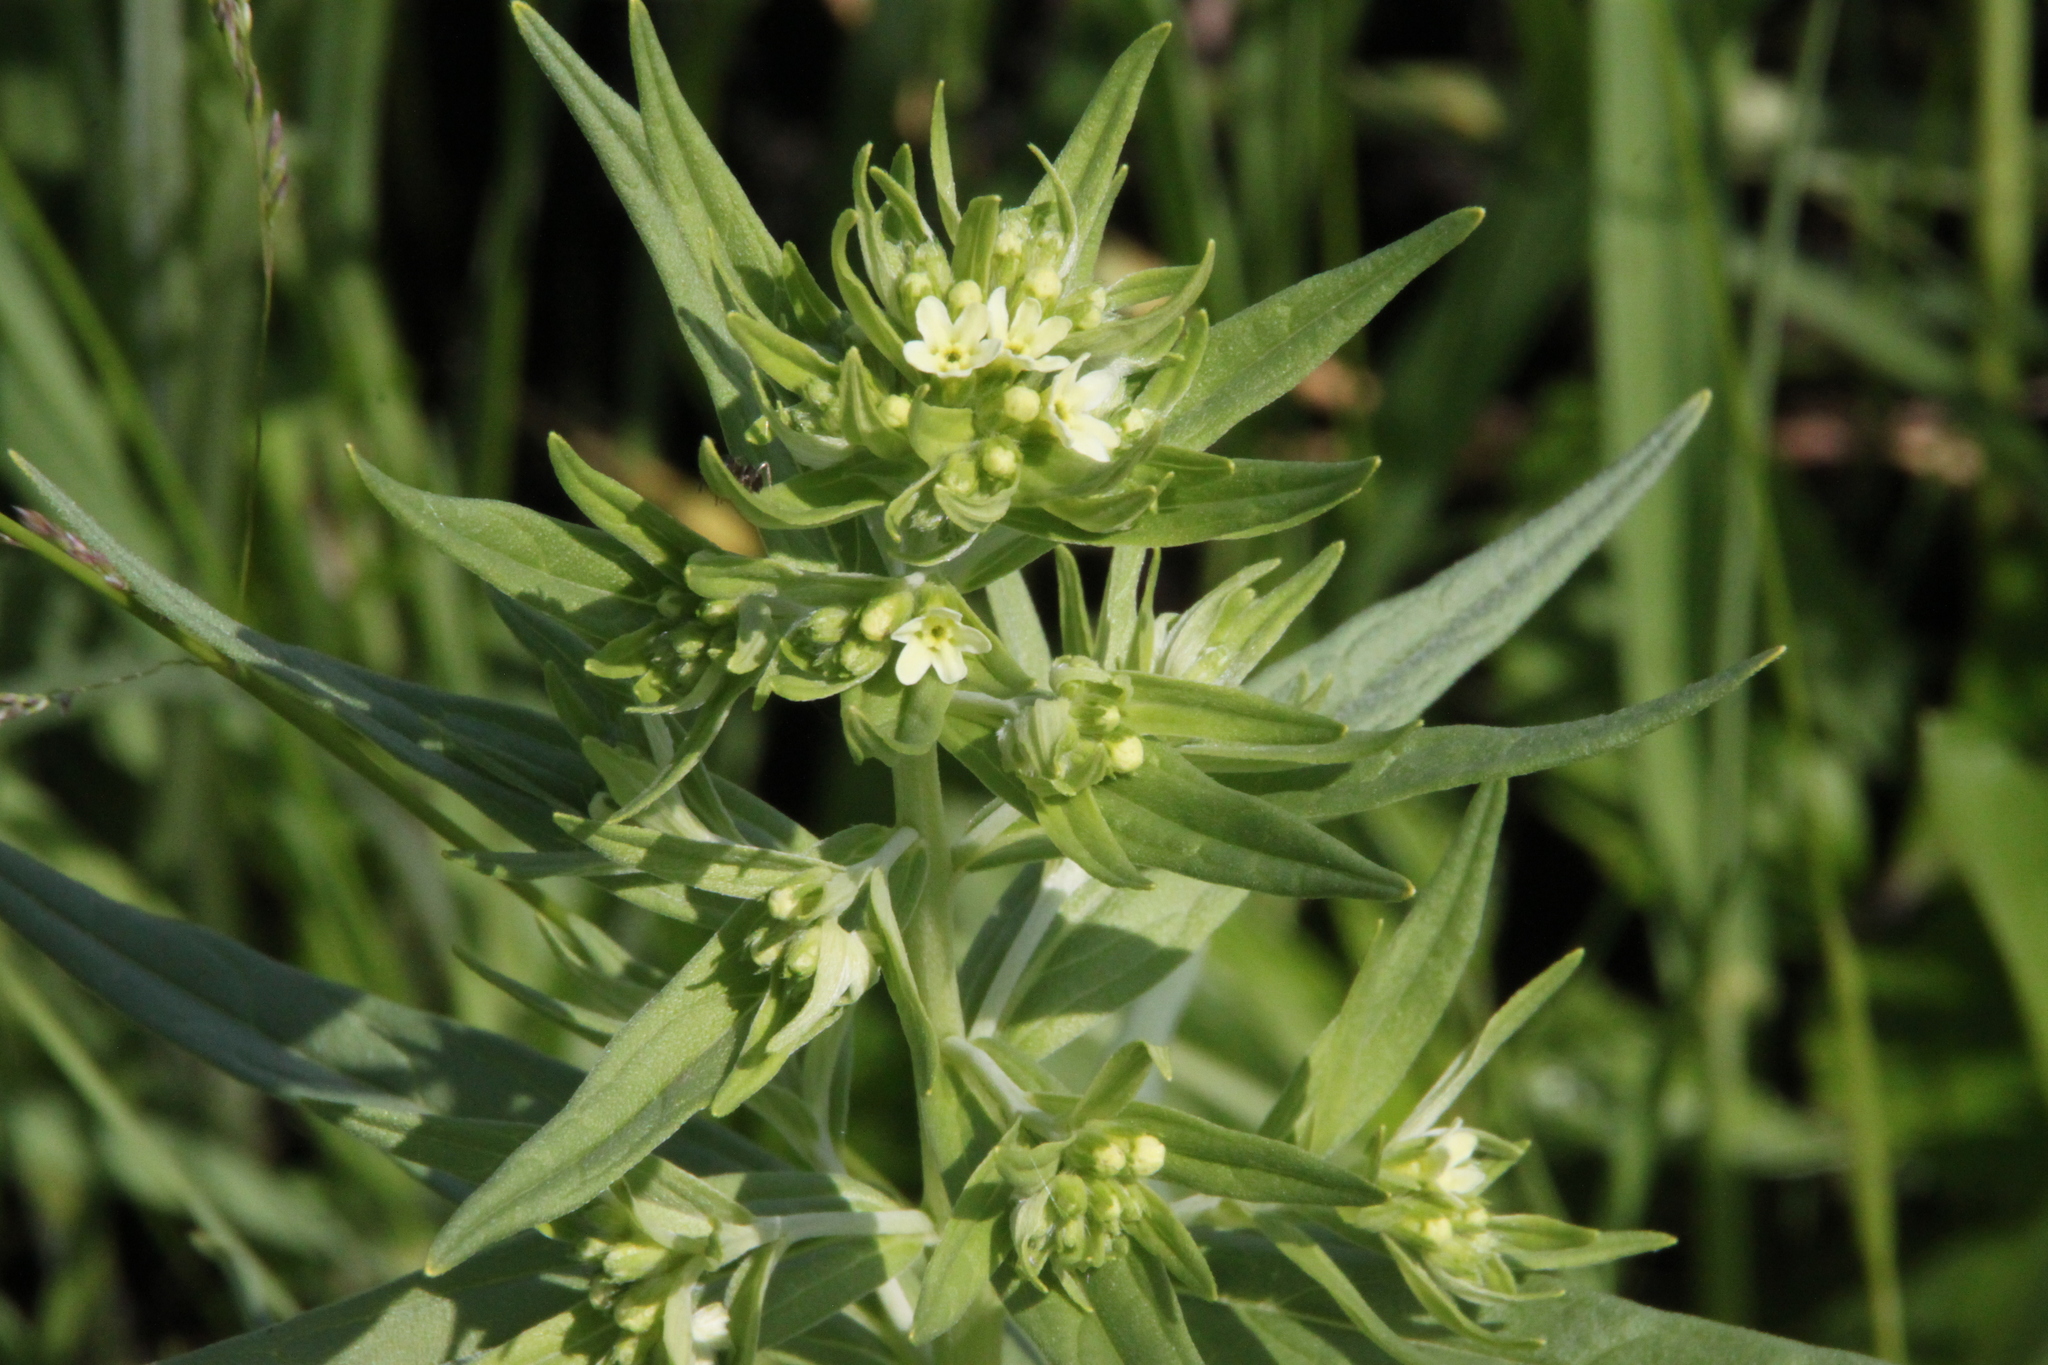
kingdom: Plantae
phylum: Tracheophyta
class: Magnoliopsida
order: Boraginales
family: Boraginaceae
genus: Lithospermum
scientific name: Lithospermum officinale
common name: Common gromwell
